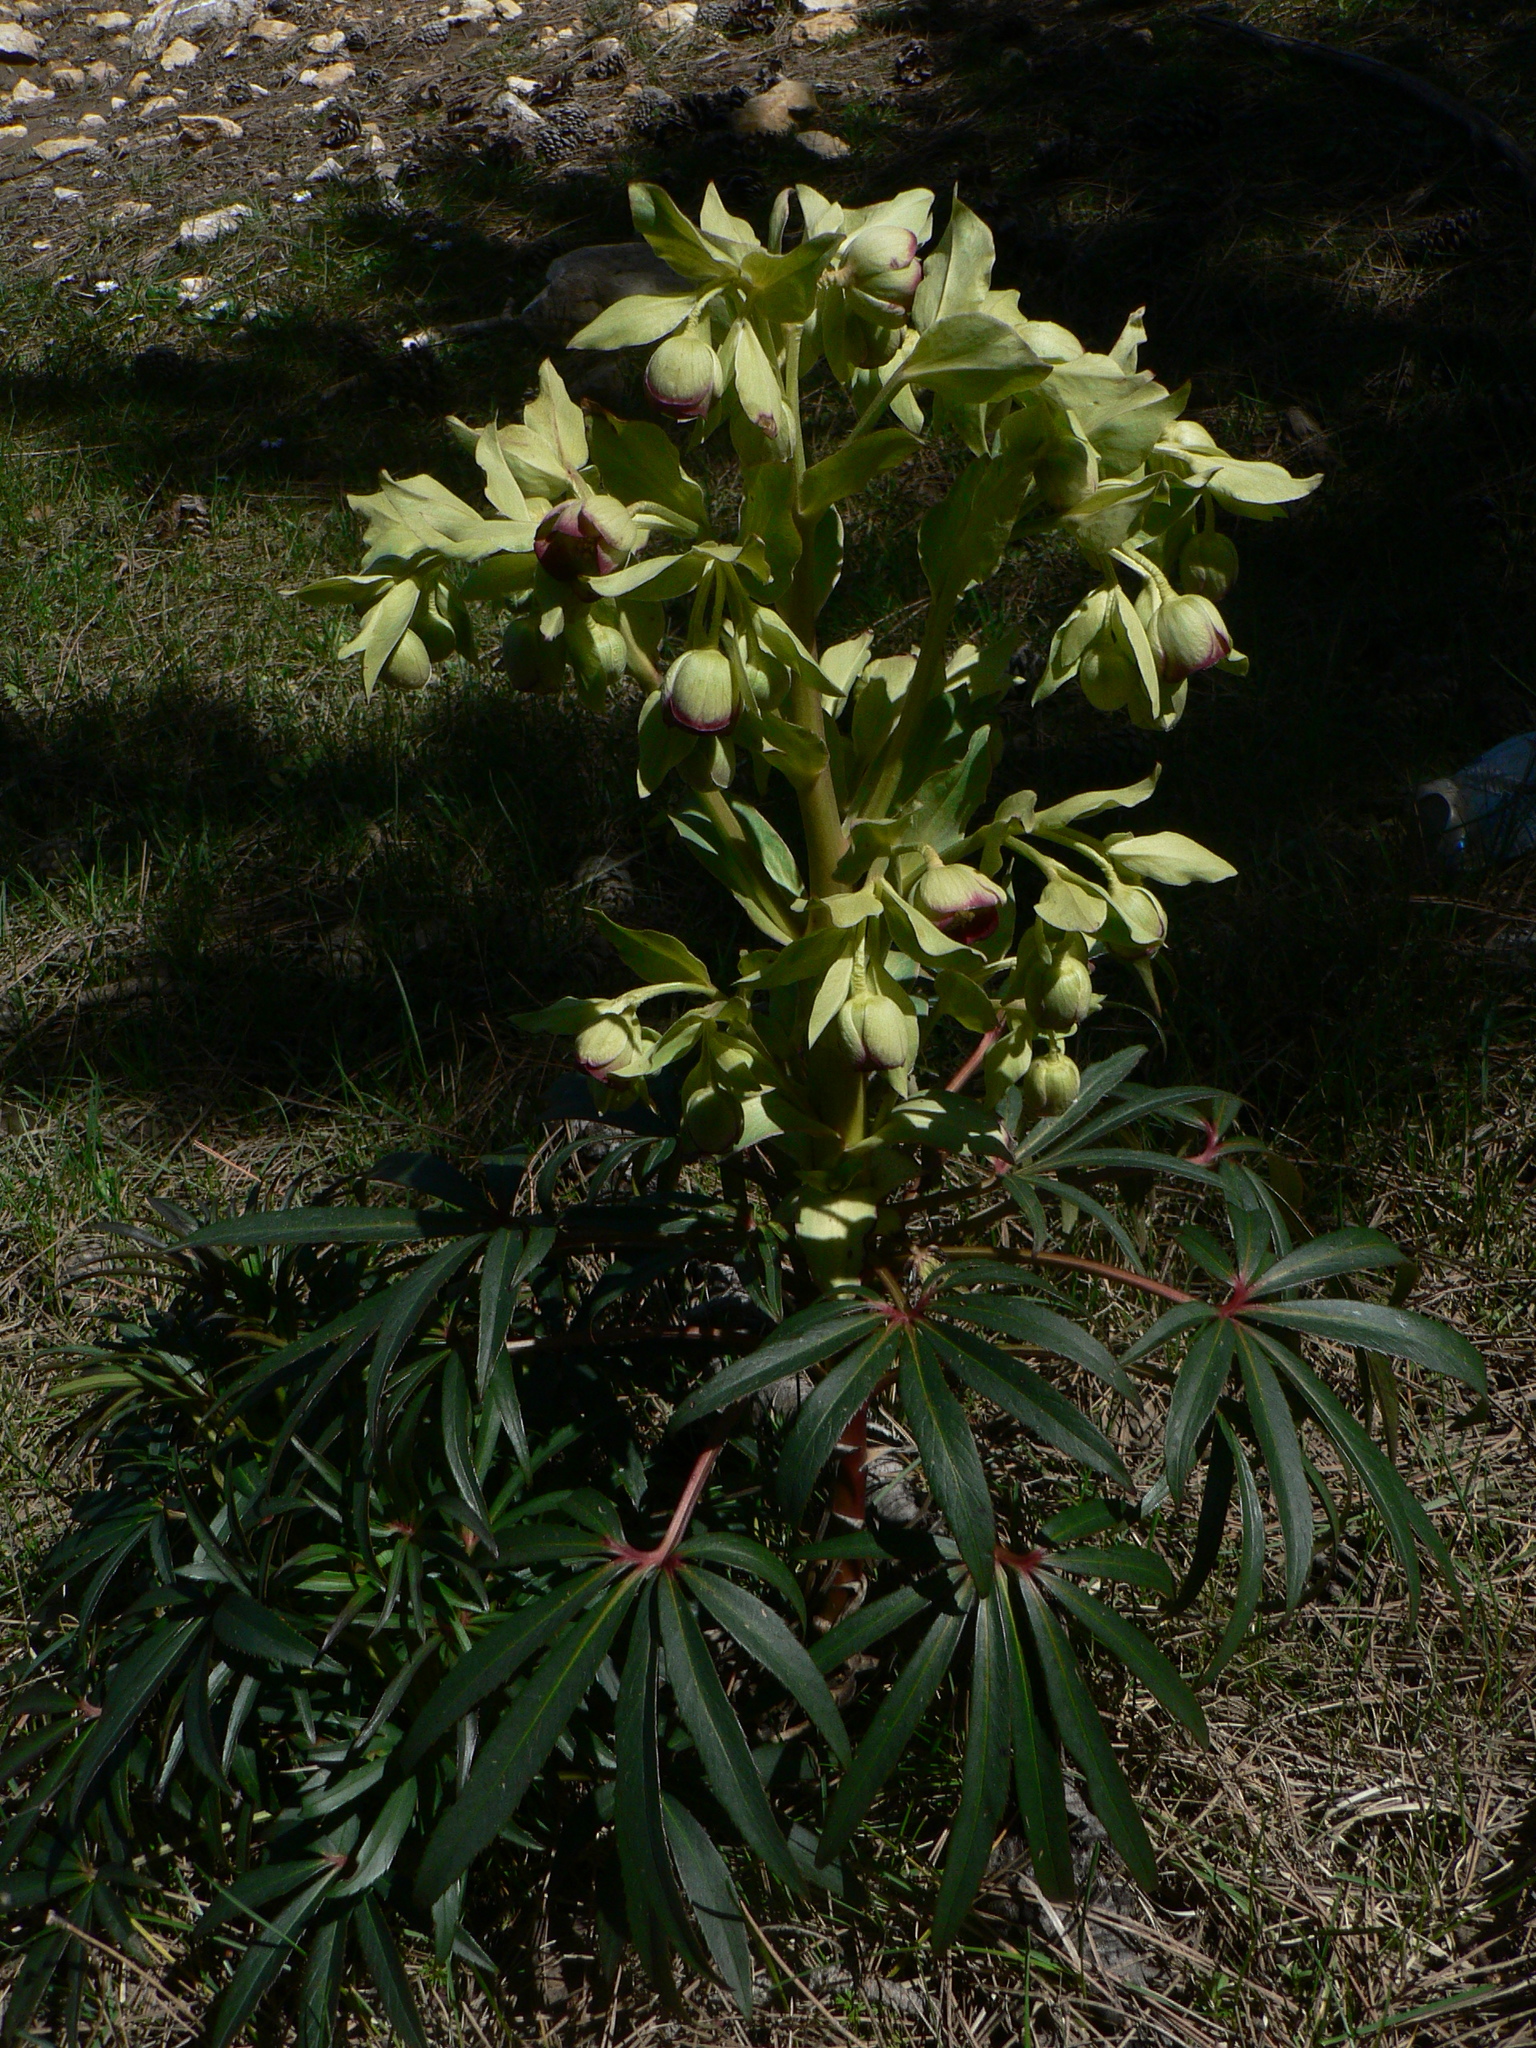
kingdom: Plantae
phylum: Tracheophyta
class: Magnoliopsida
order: Ranunculales
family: Ranunculaceae
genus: Helleborus
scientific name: Helleborus foetidus
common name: Stinking hellebore
